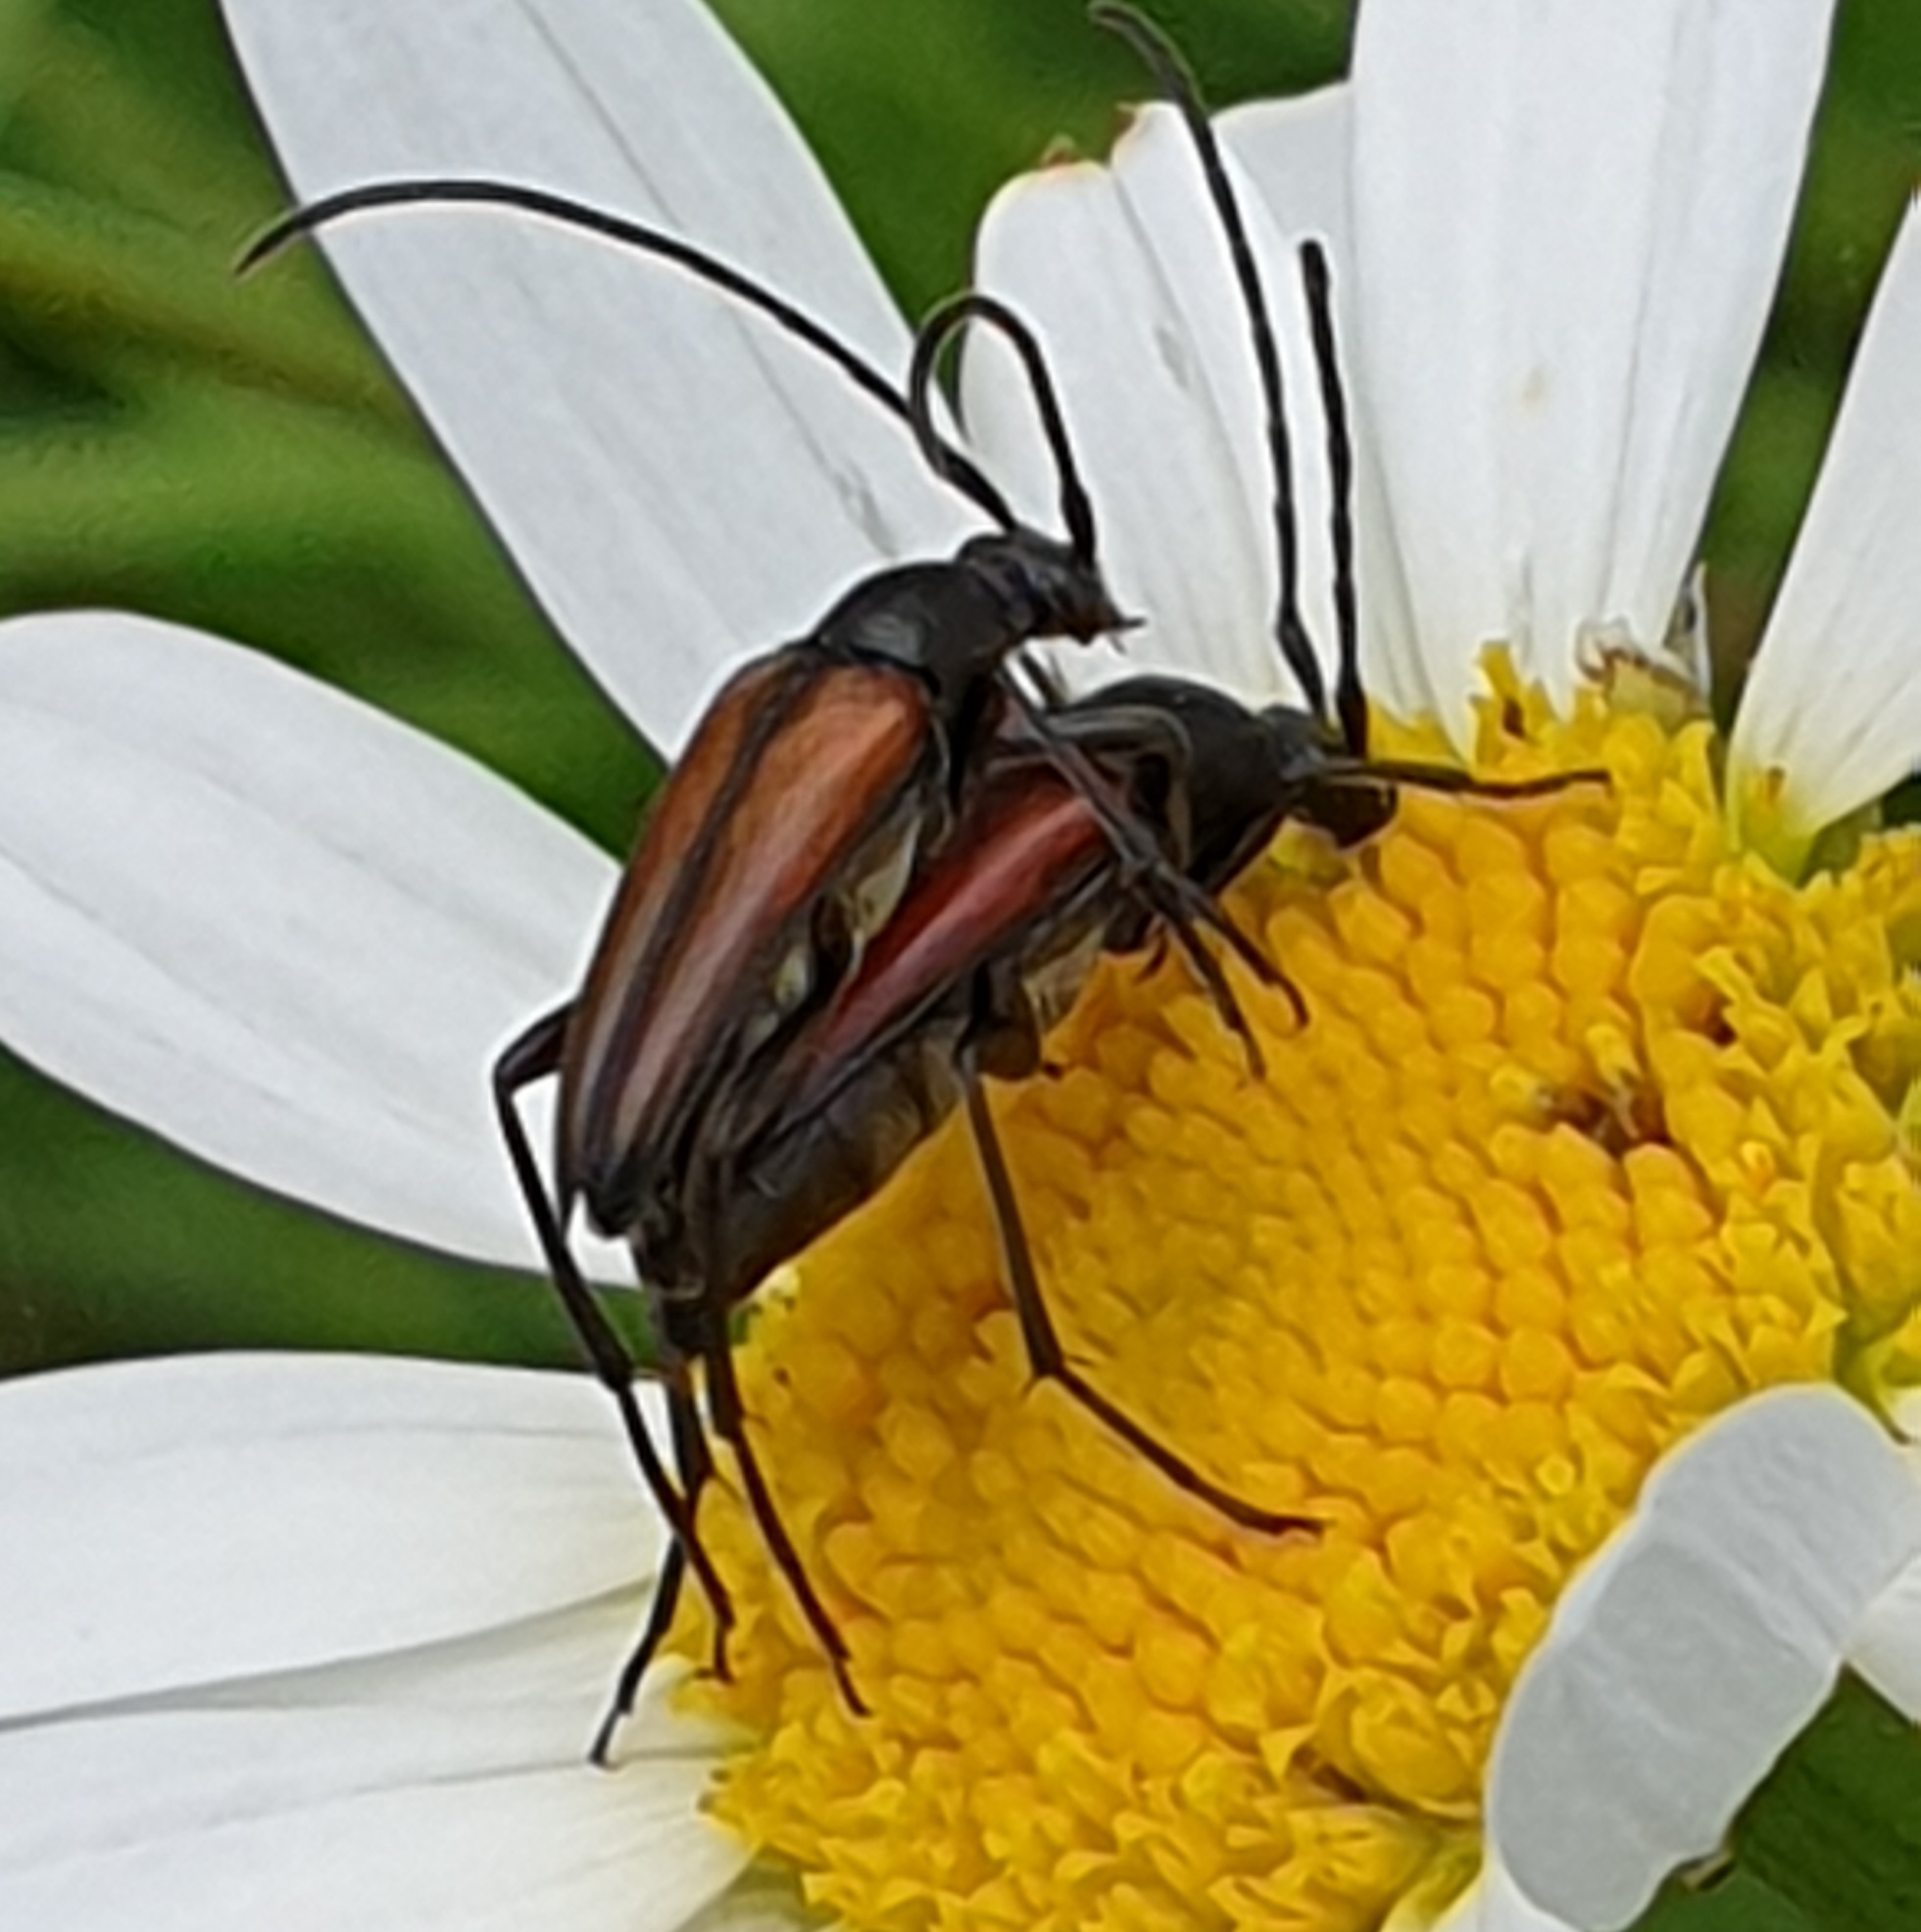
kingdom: Animalia
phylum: Arthropoda
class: Insecta
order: Coleoptera
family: Cerambycidae
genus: Stenurella
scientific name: Stenurella melanura
